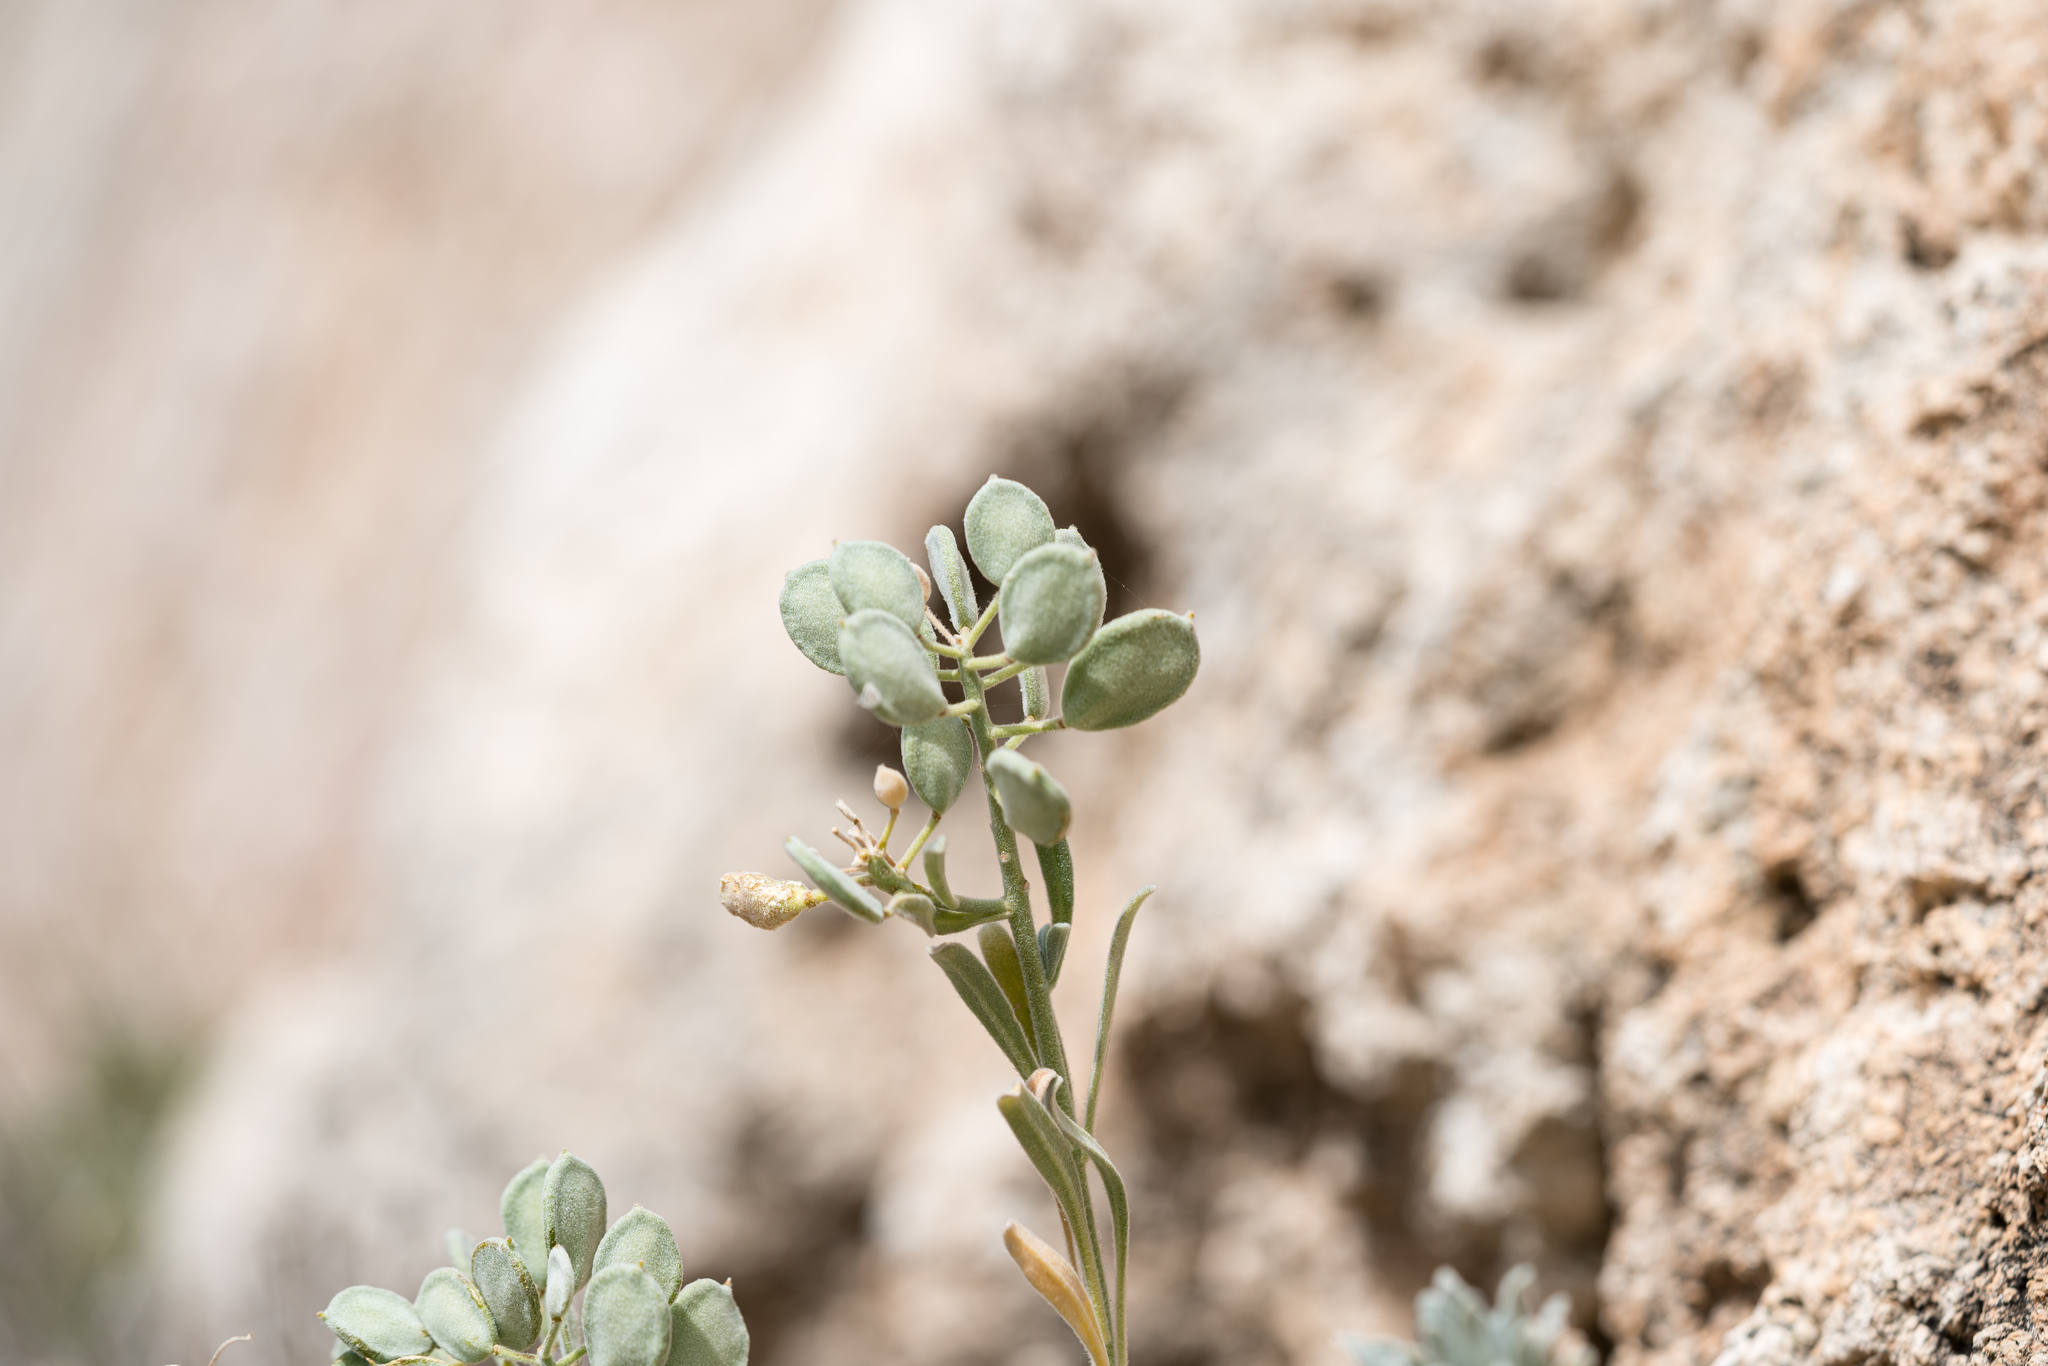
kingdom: Plantae
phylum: Tracheophyta
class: Magnoliopsida
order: Brassicales
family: Brassicaceae
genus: Acuston
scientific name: Acuston perenne
